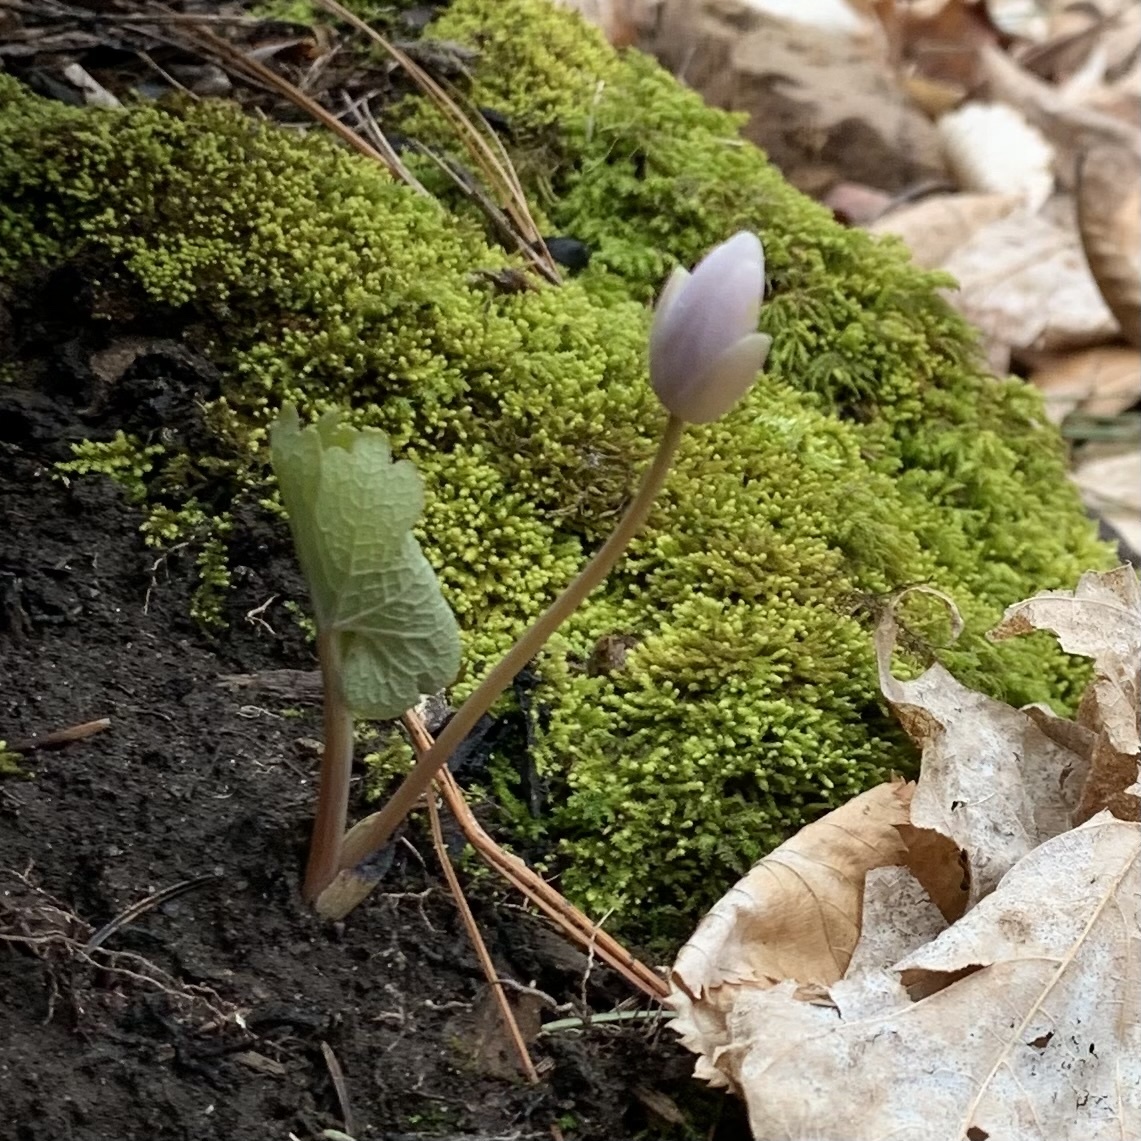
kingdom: Plantae
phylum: Tracheophyta
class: Magnoliopsida
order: Ranunculales
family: Papaveraceae
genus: Sanguinaria
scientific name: Sanguinaria canadensis
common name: Bloodroot
